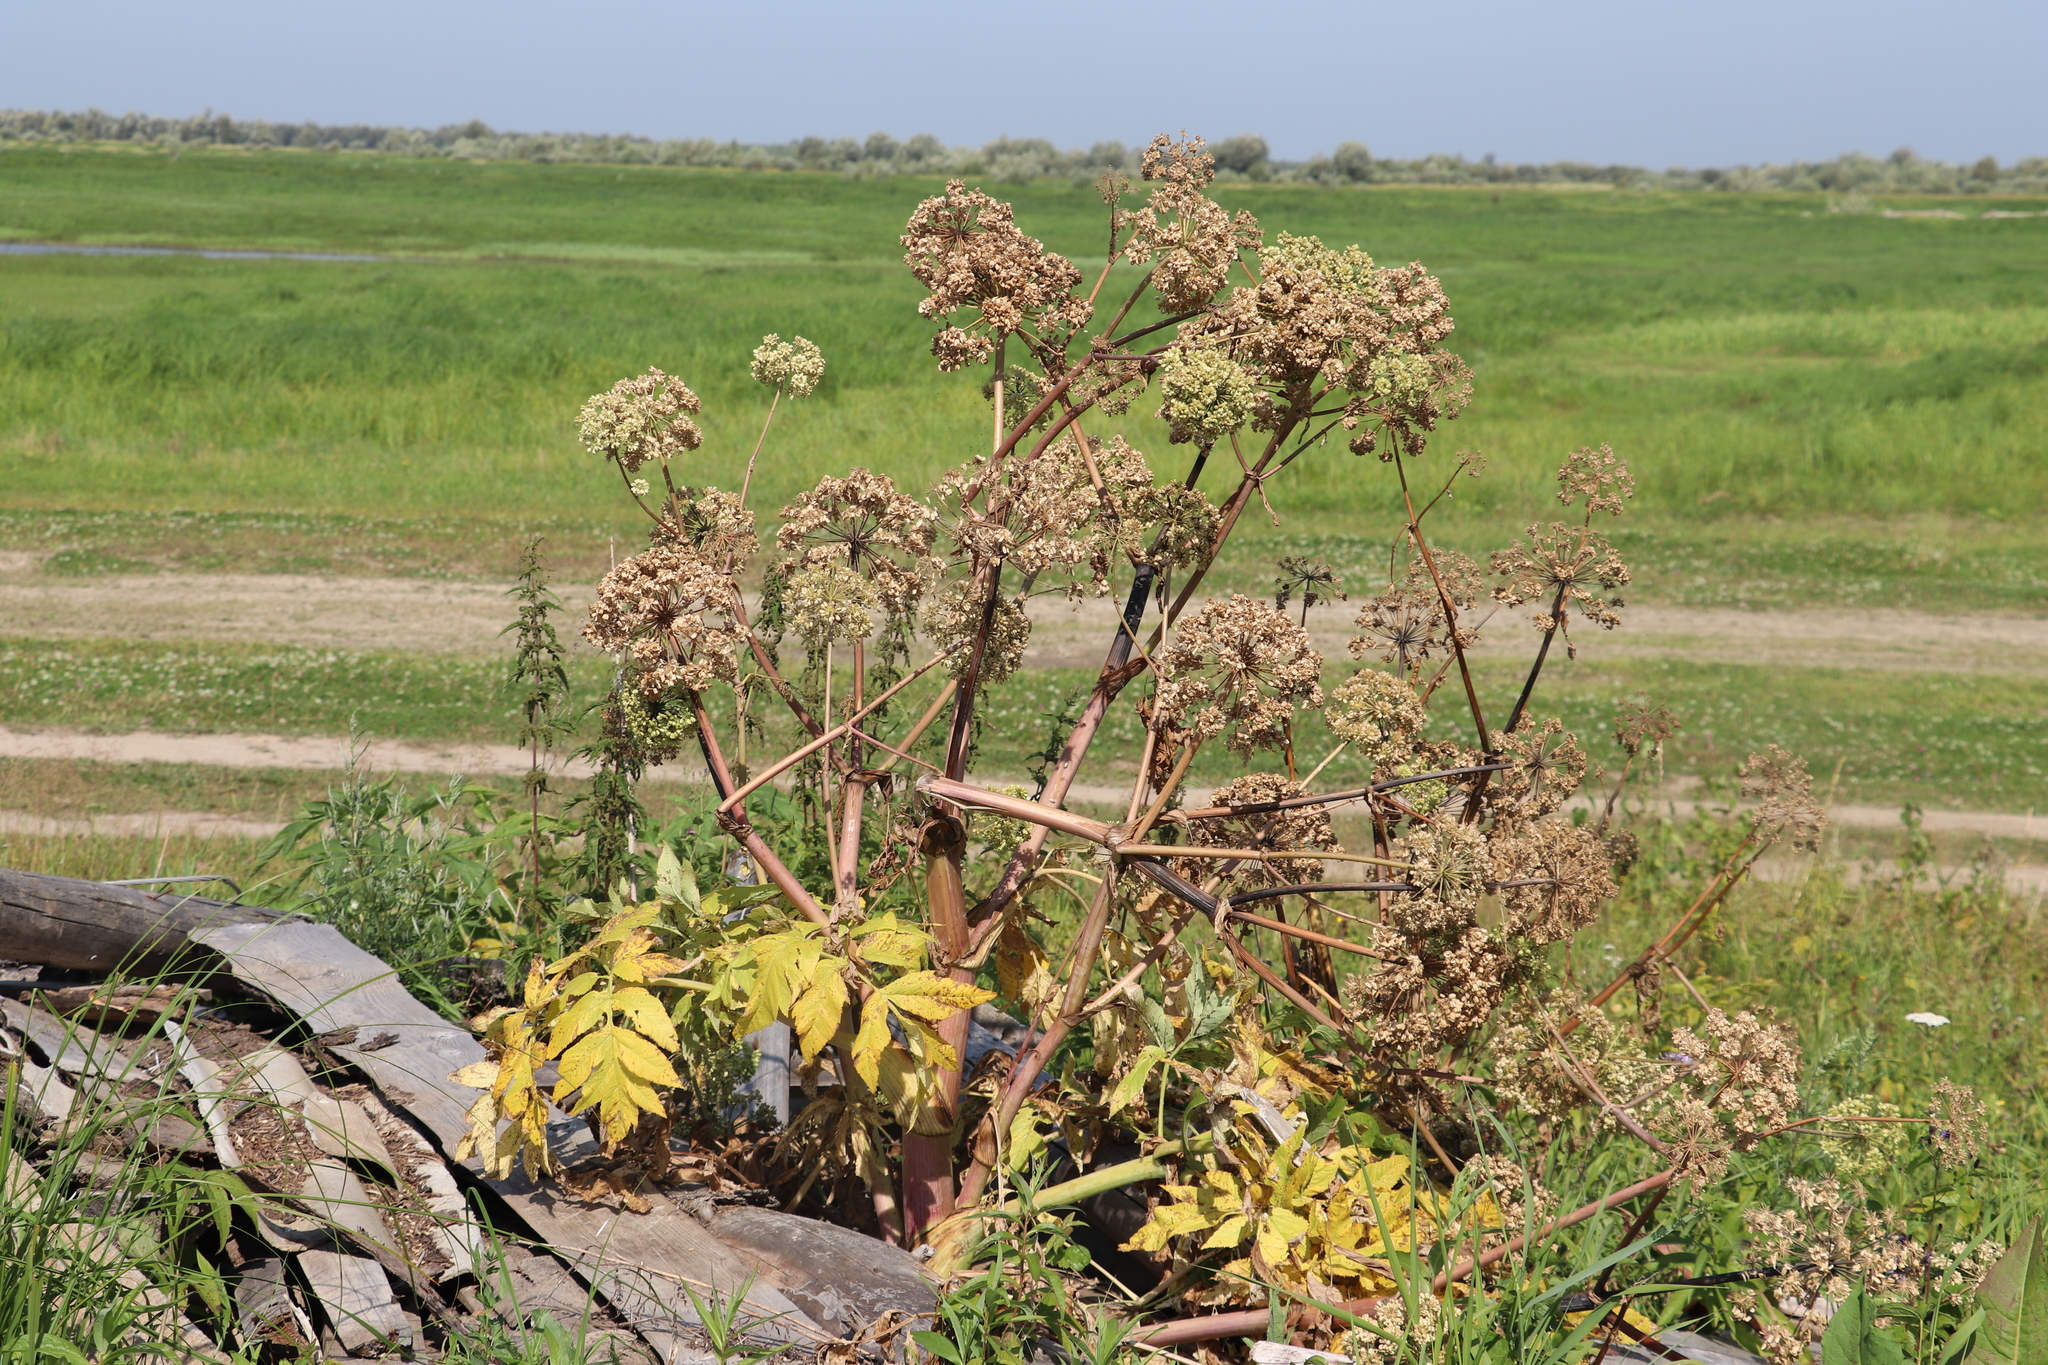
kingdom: Plantae
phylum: Tracheophyta
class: Magnoliopsida
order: Apiales
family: Apiaceae
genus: Angelica
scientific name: Angelica decurrens
